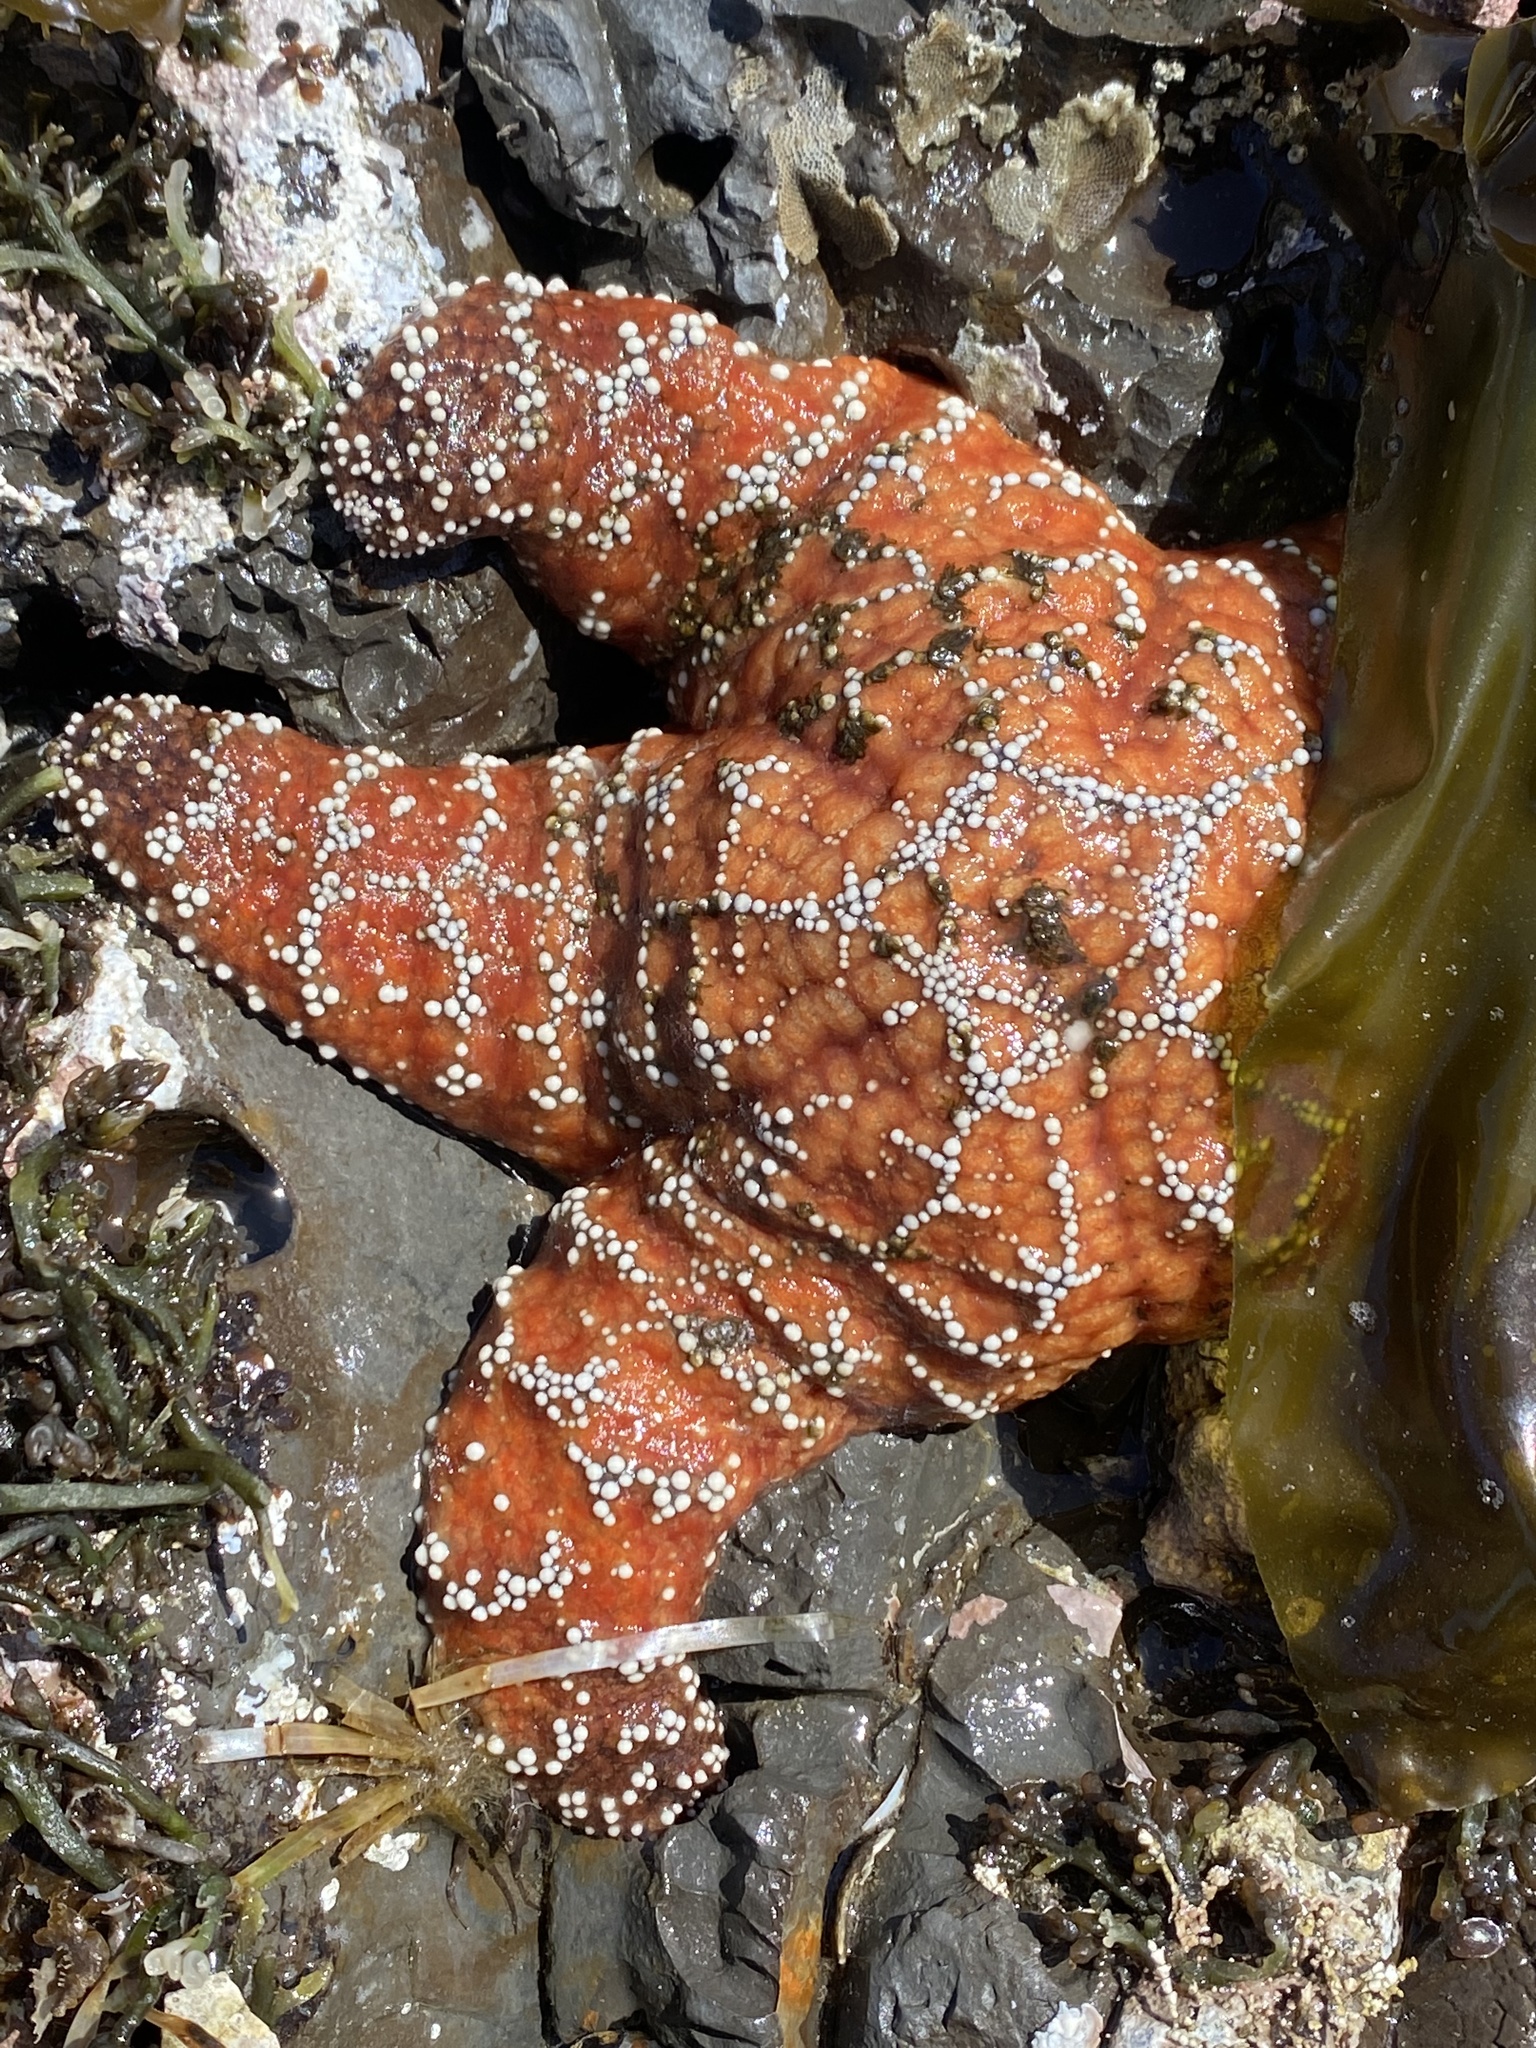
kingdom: Animalia
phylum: Echinodermata
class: Asteroidea
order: Forcipulatida
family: Asteriidae
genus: Pisaster
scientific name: Pisaster ochraceus
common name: Ochre stars
